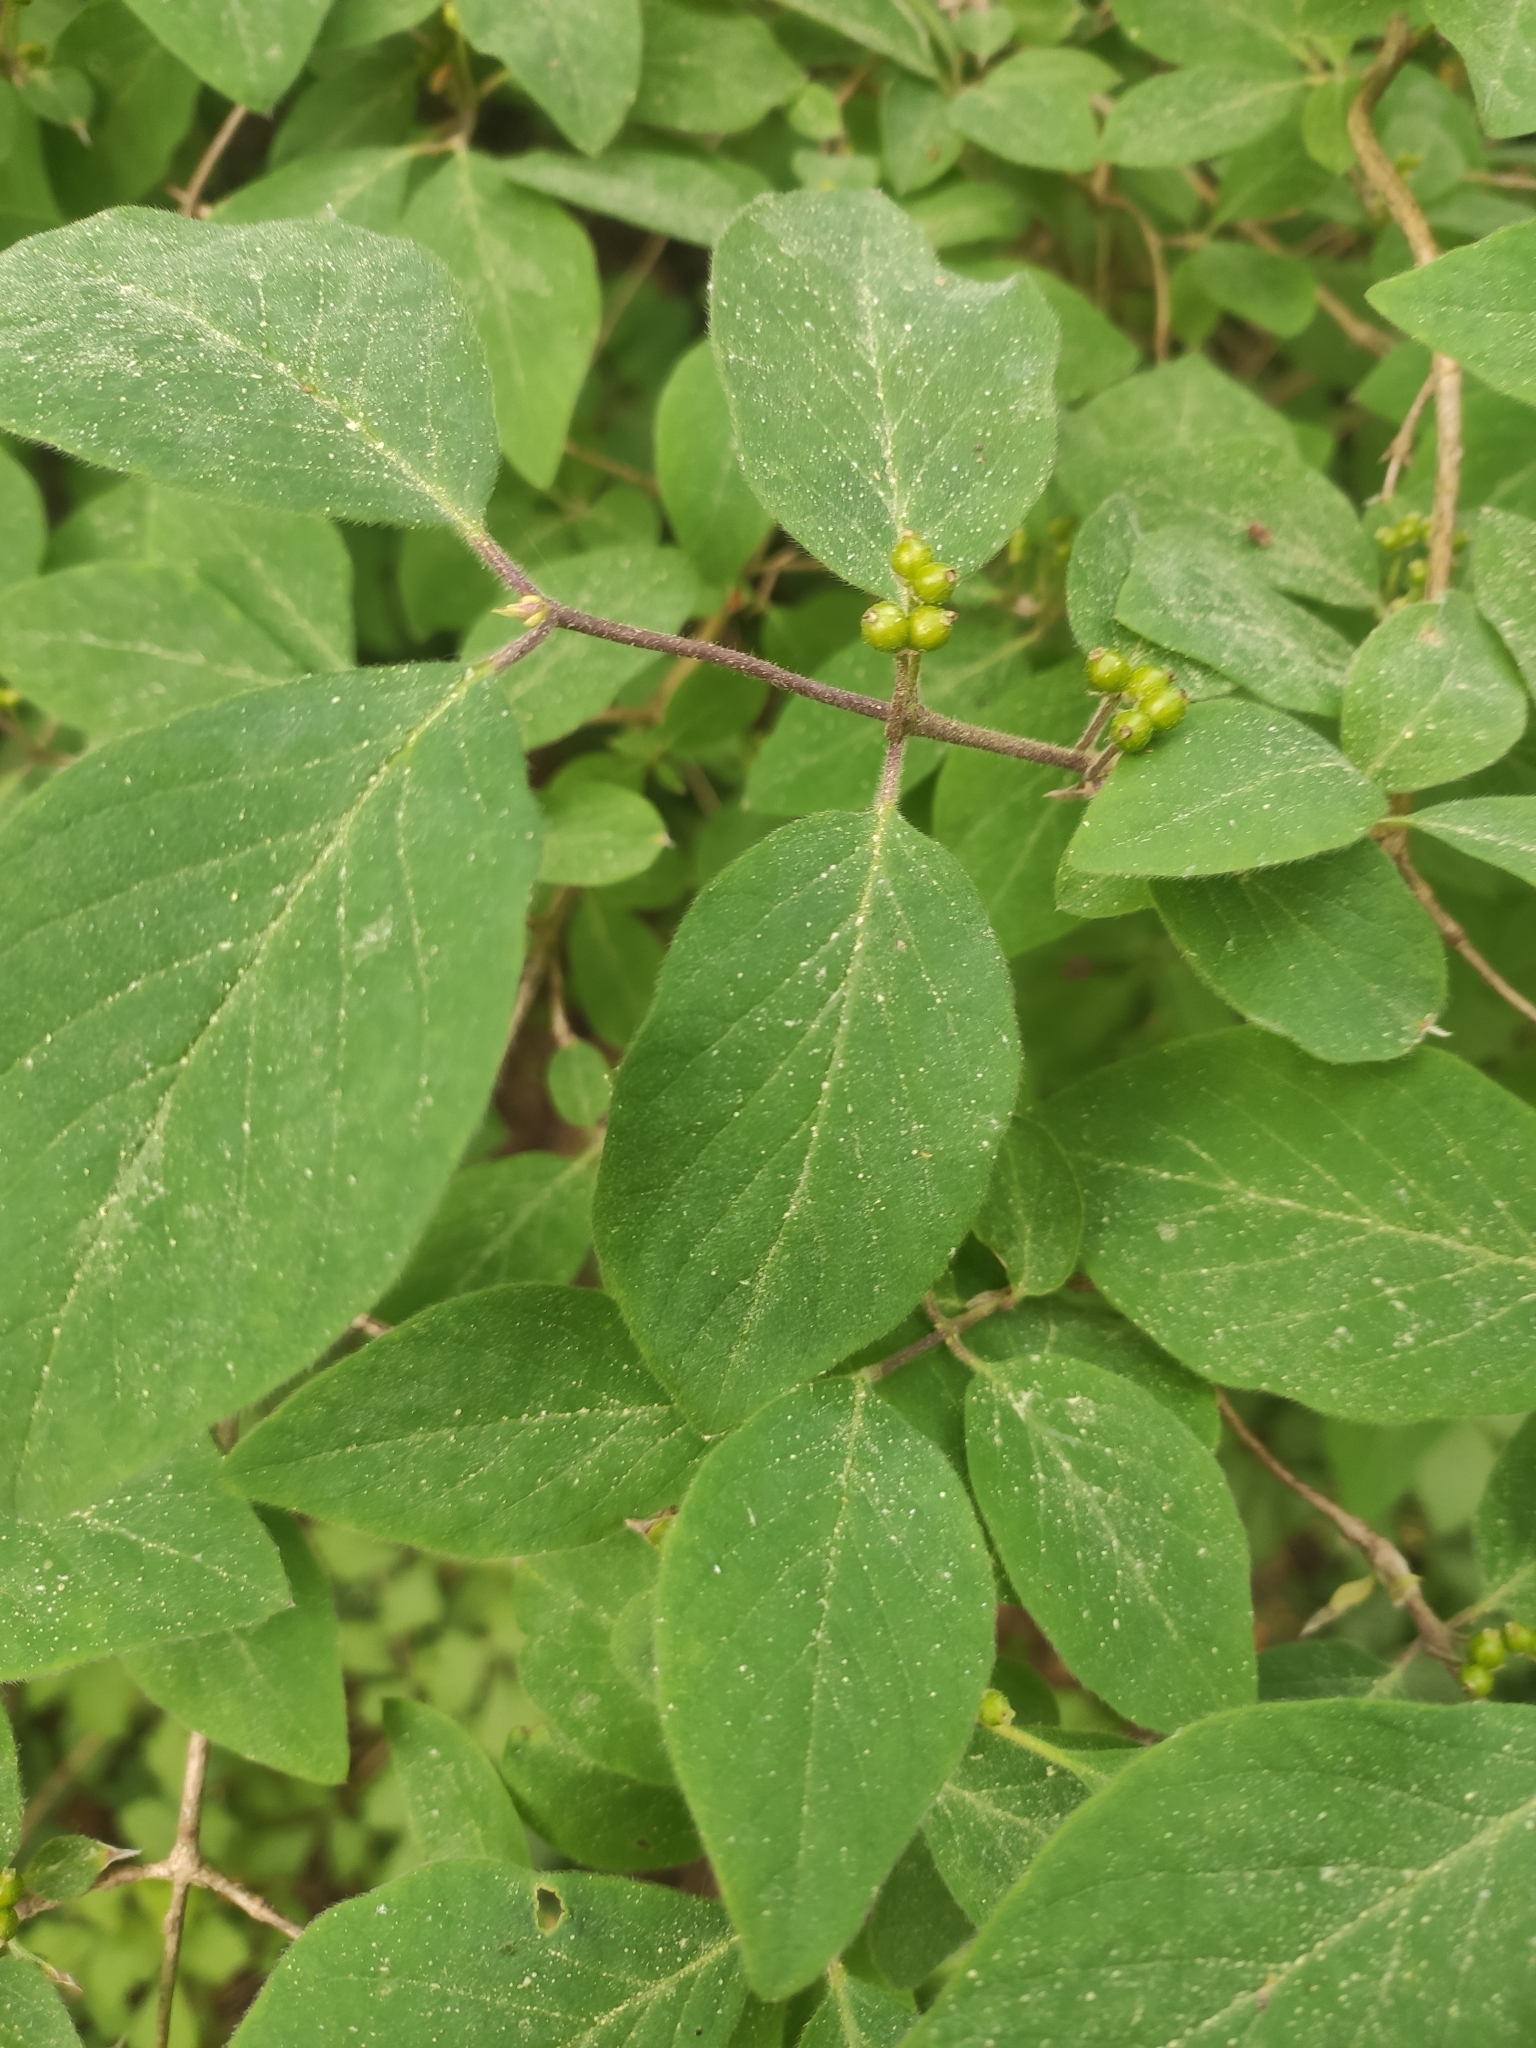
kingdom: Plantae
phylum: Tracheophyta
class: Magnoliopsida
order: Dipsacales
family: Caprifoliaceae
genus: Lonicera
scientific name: Lonicera xylosteum
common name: Fly honeysuckle
